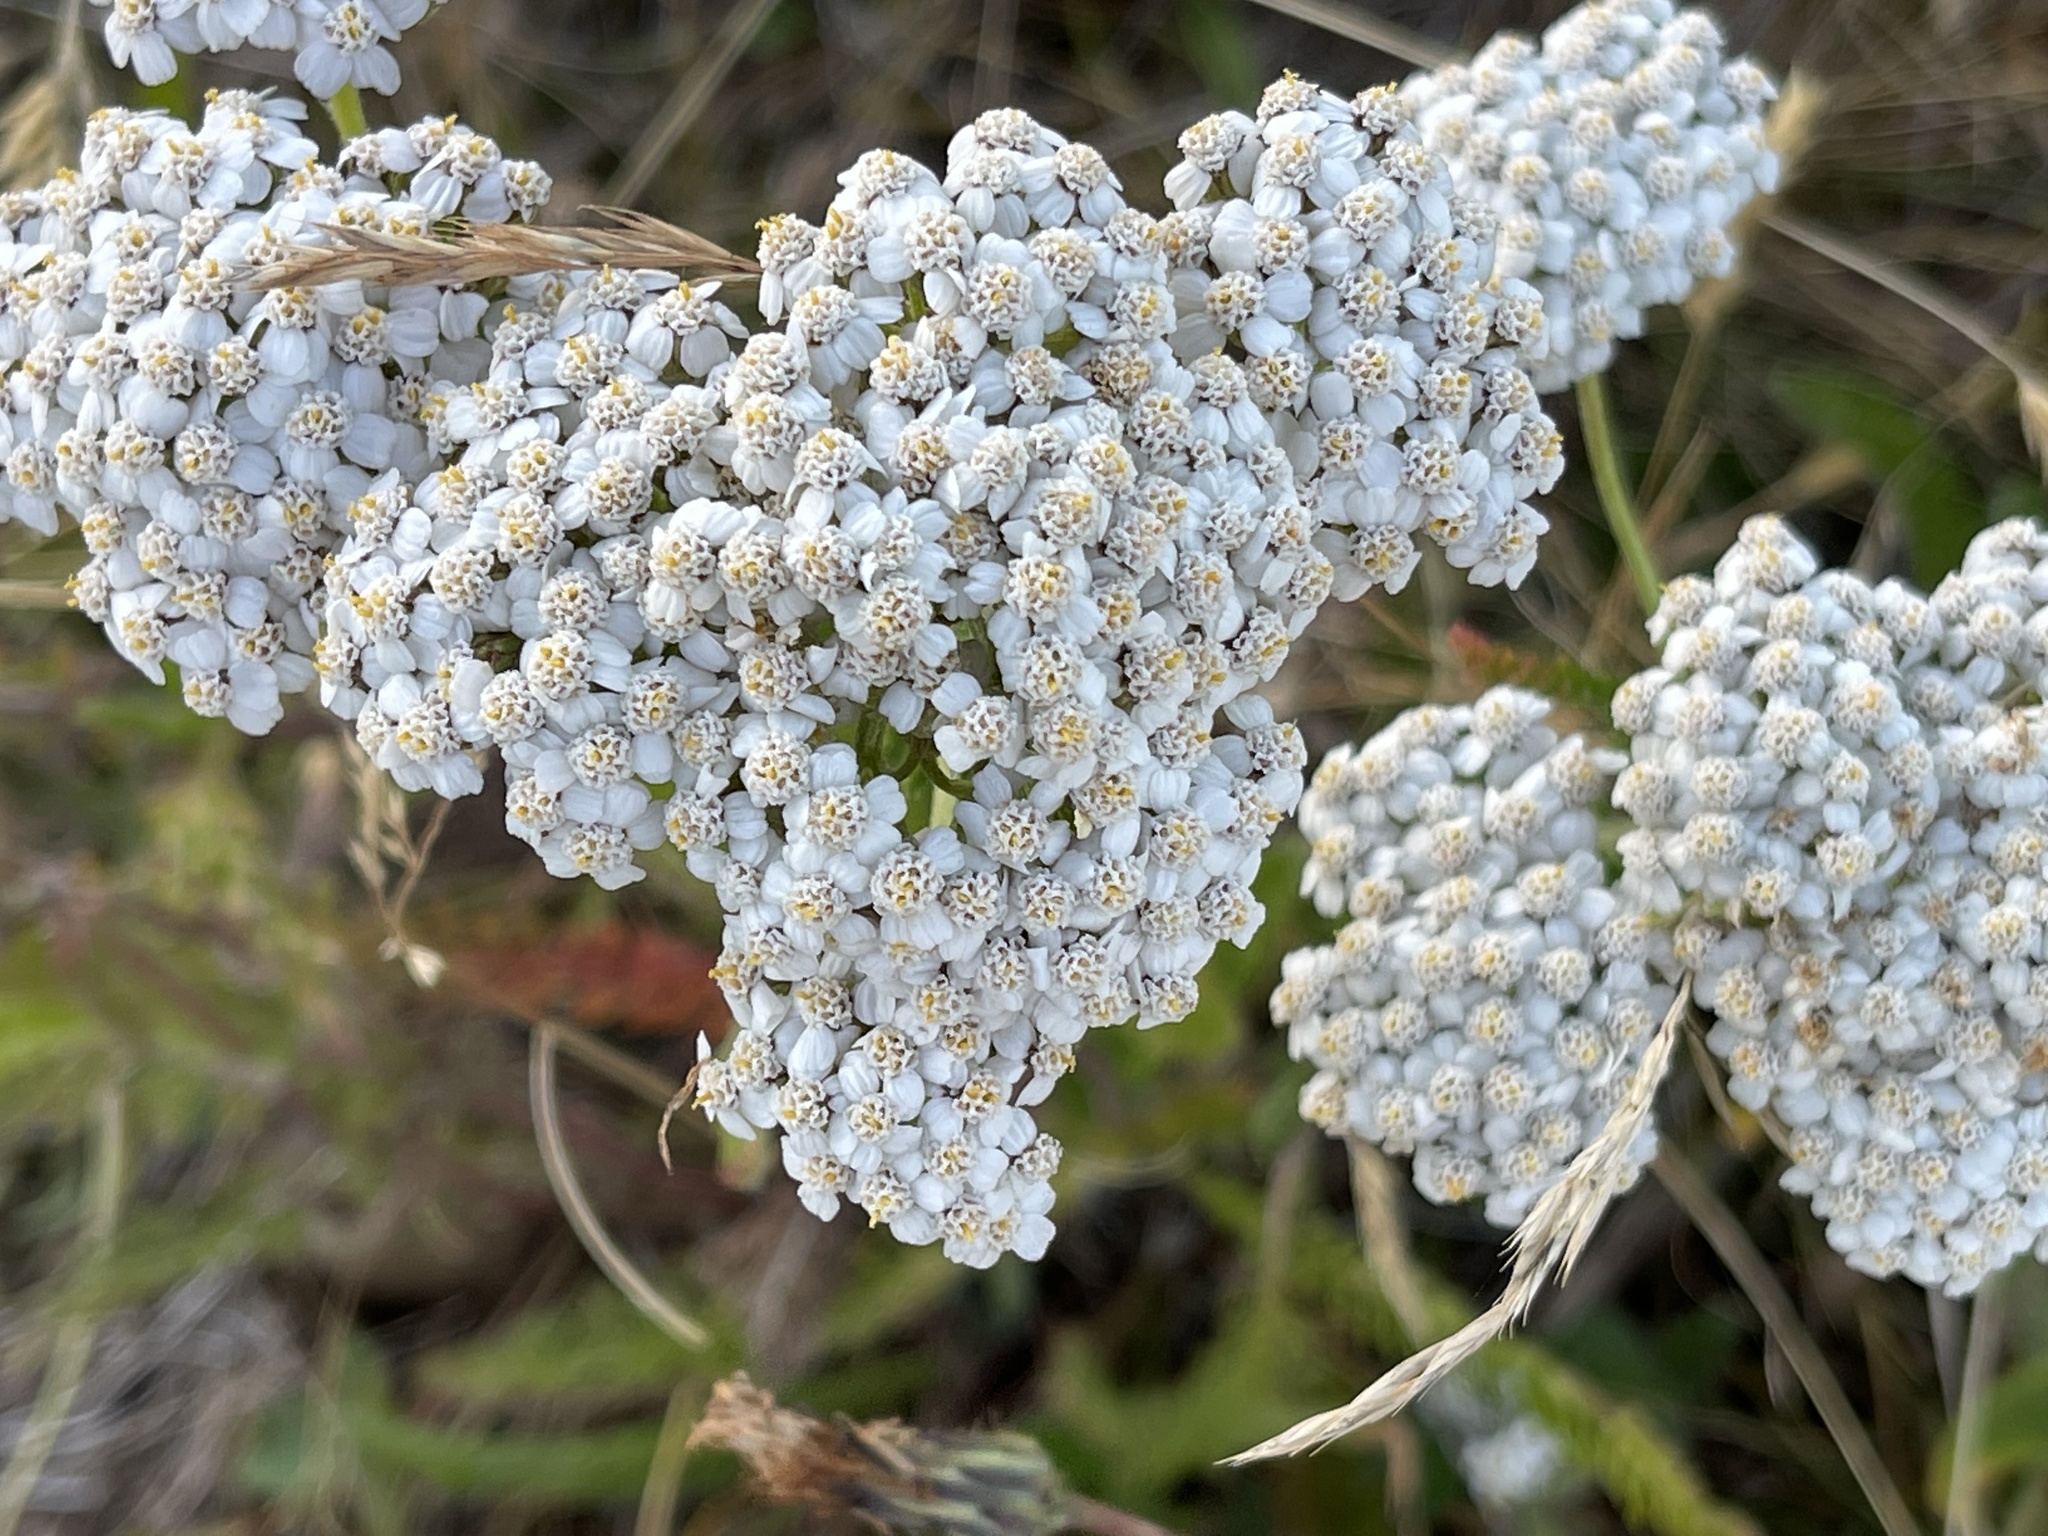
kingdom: Plantae
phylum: Tracheophyta
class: Magnoliopsida
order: Asterales
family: Asteraceae
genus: Achillea
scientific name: Achillea millefolium
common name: Yarrow
